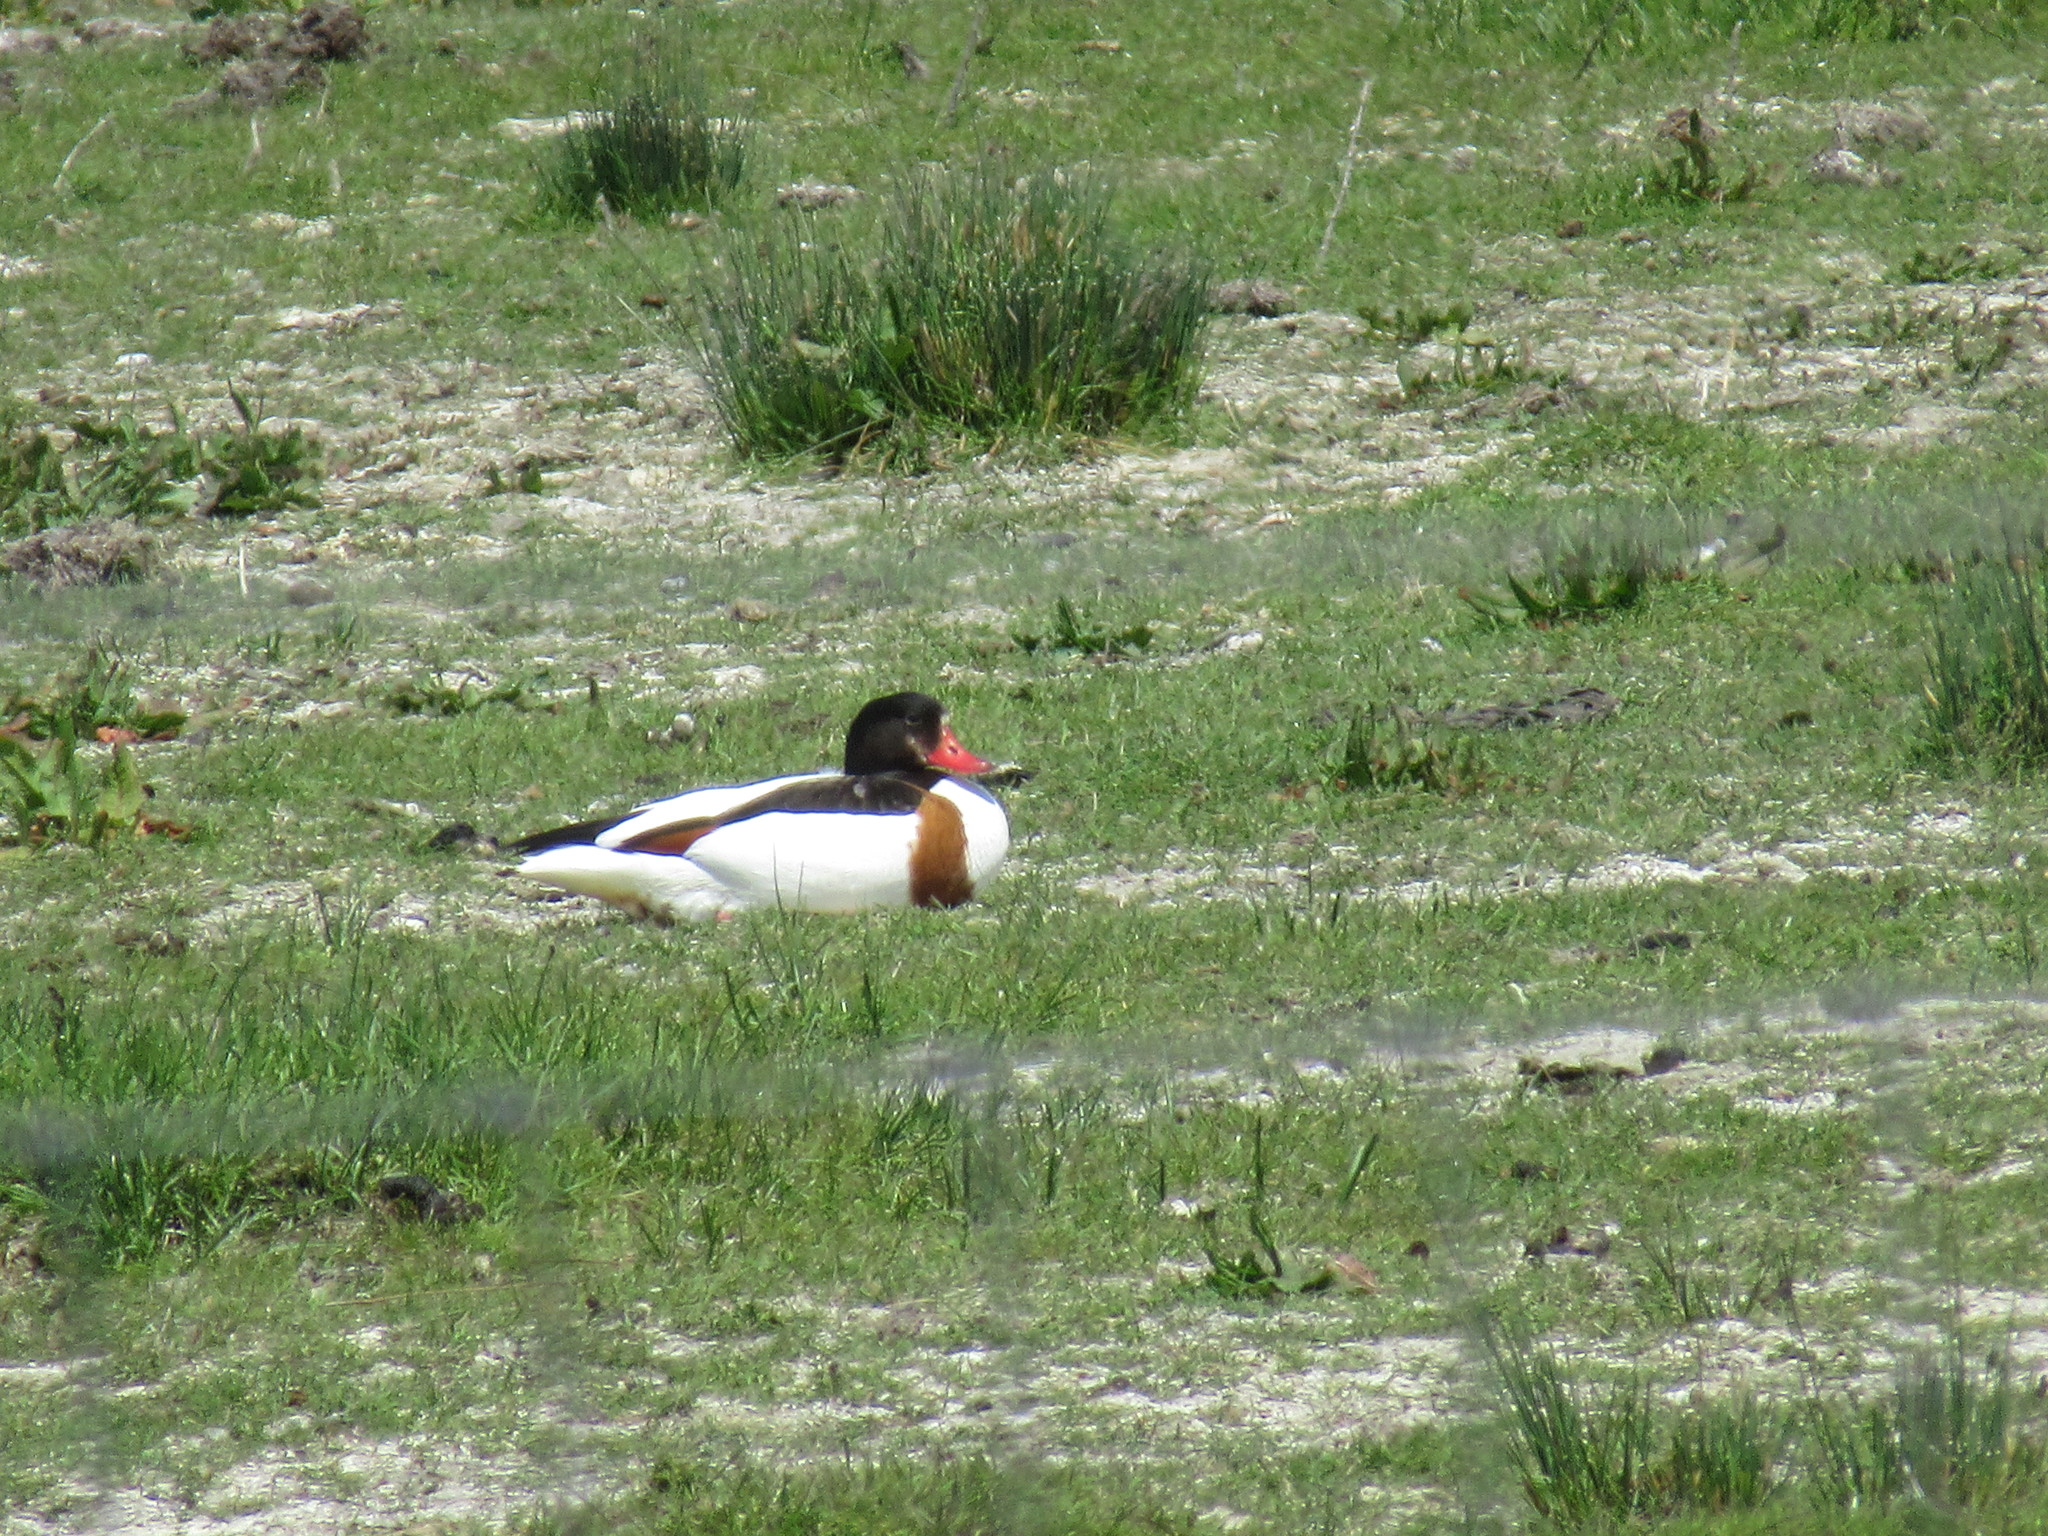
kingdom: Animalia
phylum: Chordata
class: Aves
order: Anseriformes
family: Anatidae
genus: Tadorna
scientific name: Tadorna tadorna
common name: Common shelduck
